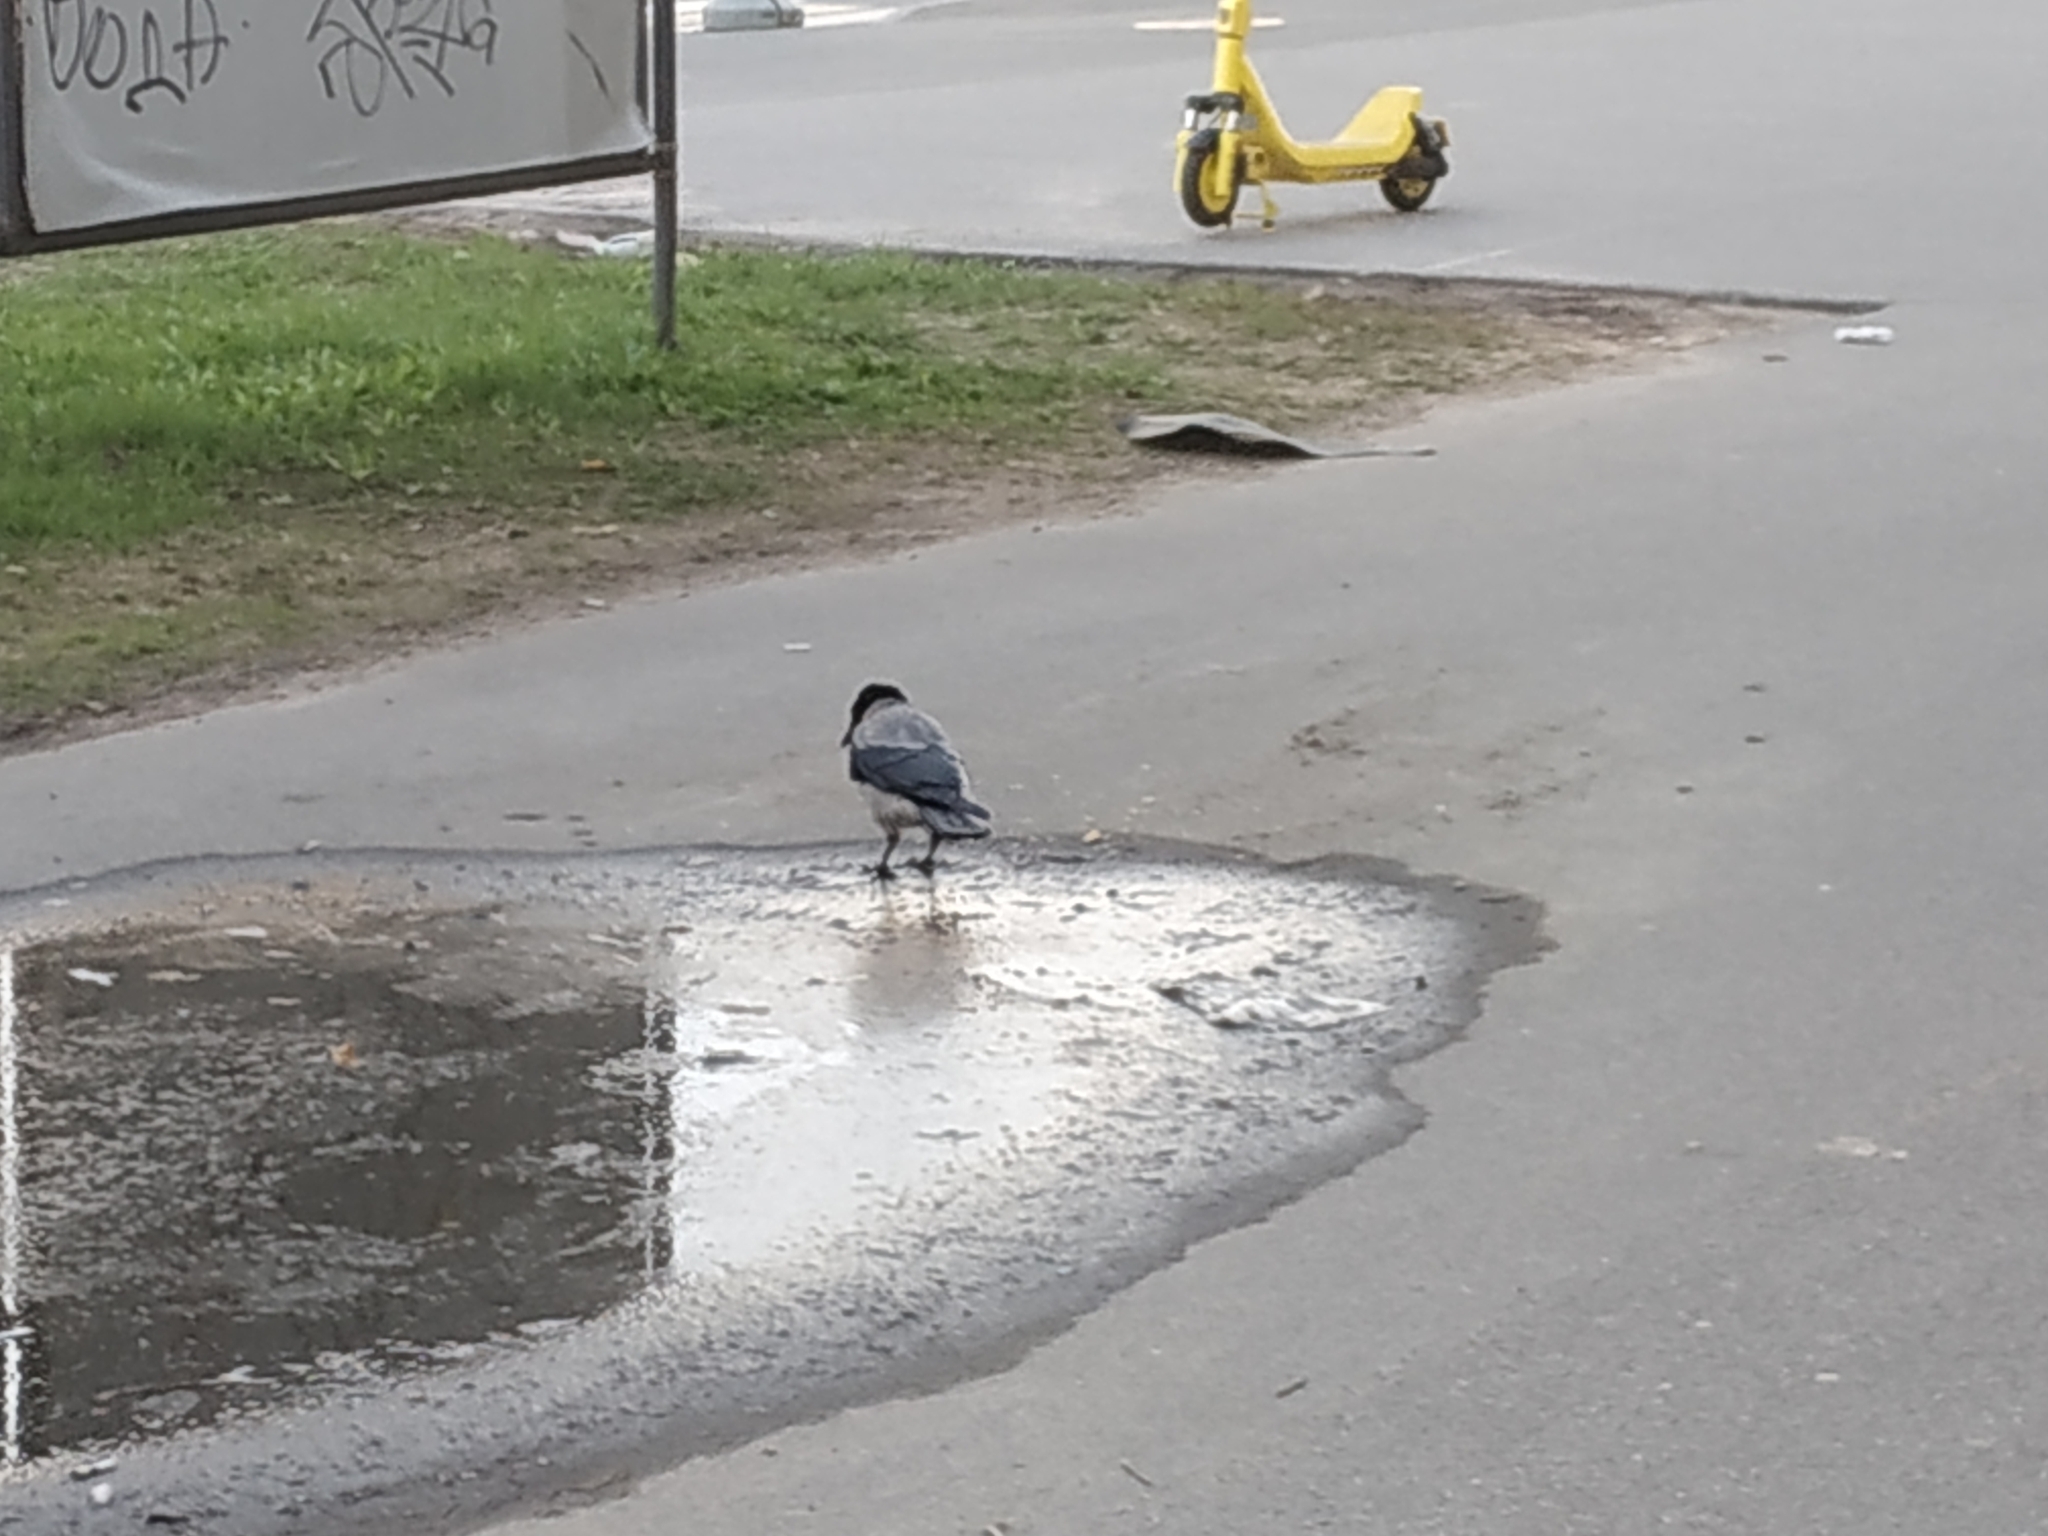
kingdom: Animalia
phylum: Chordata
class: Aves
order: Passeriformes
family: Corvidae
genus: Corvus
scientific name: Corvus cornix
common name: Hooded crow
